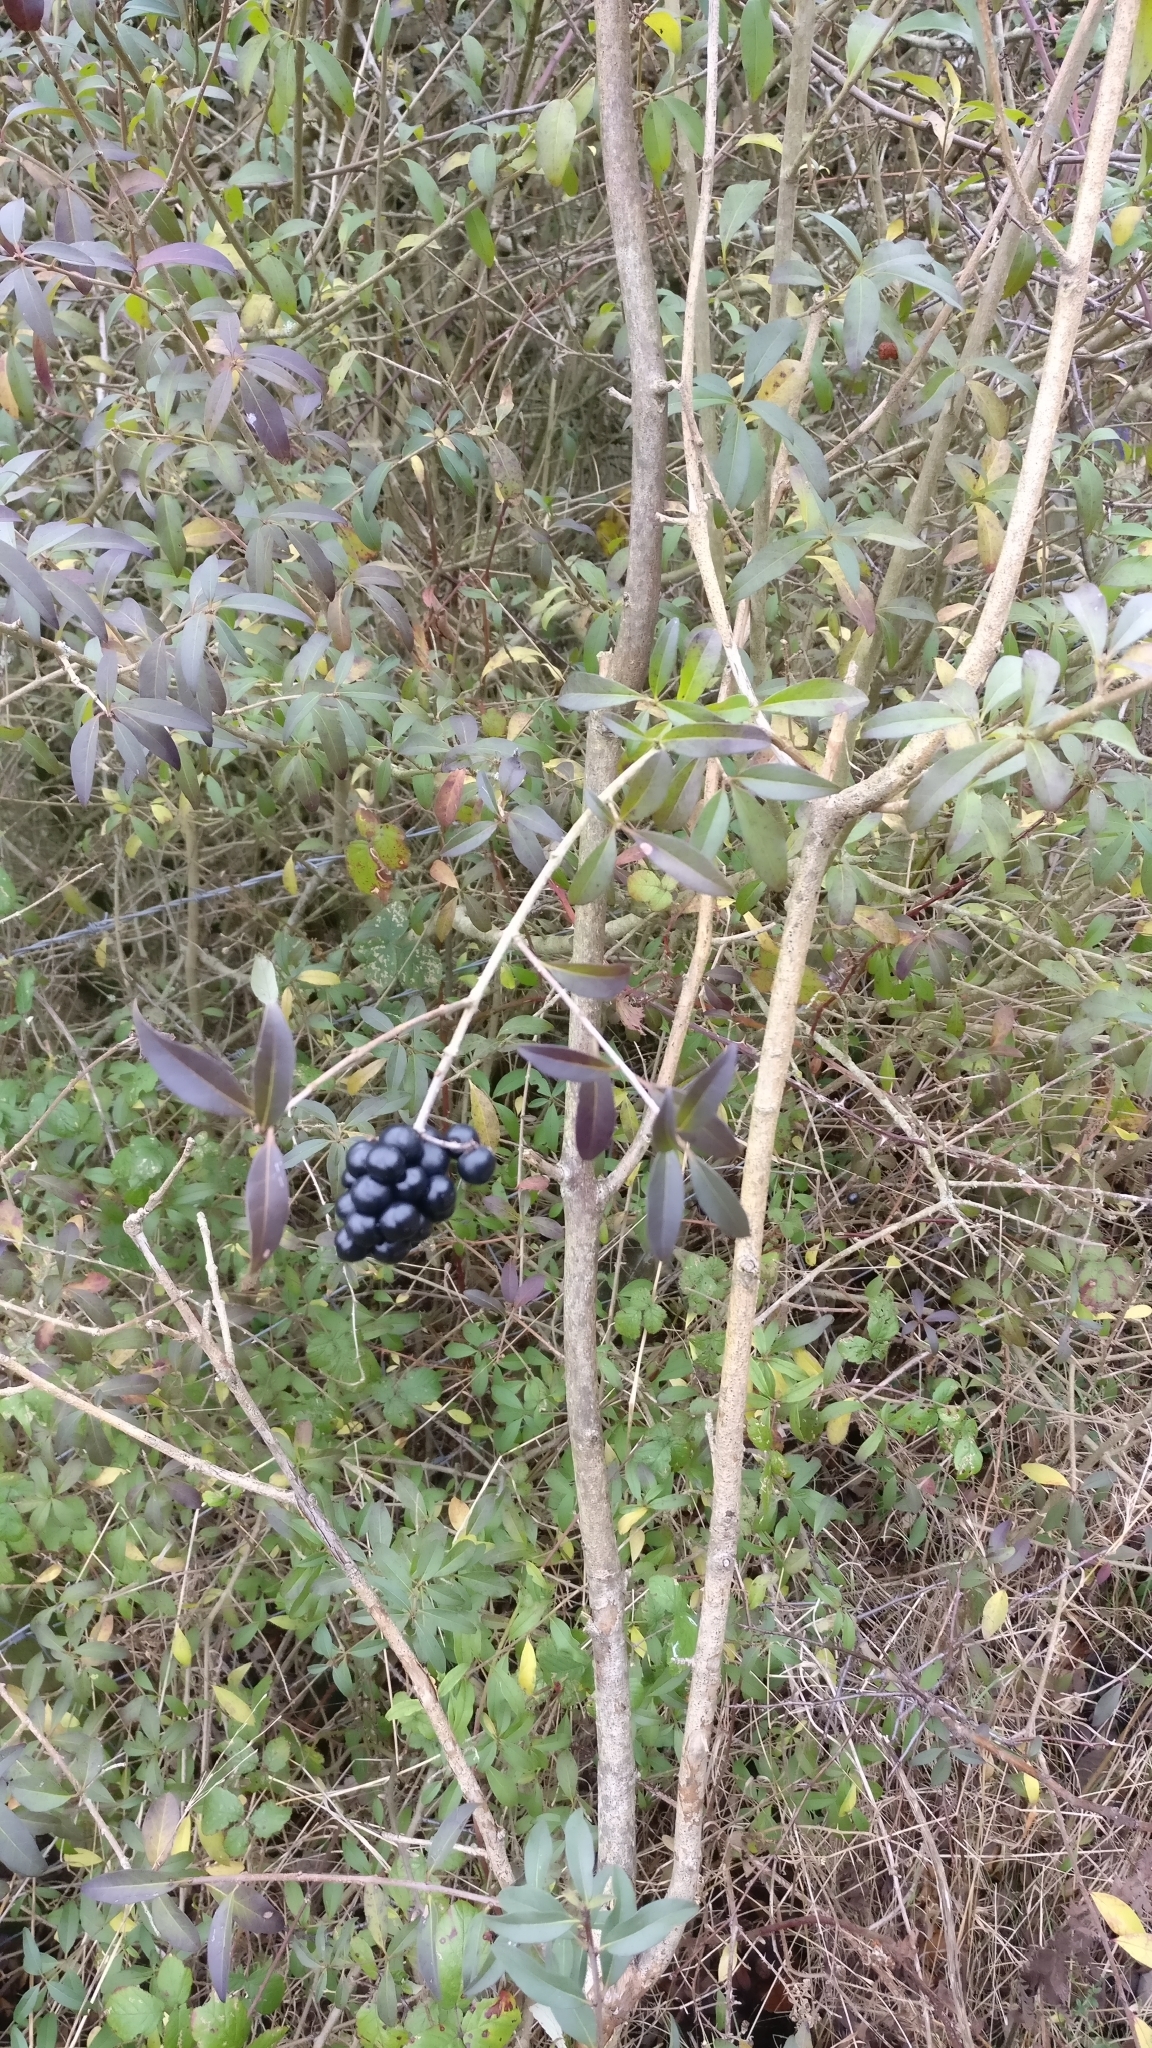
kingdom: Plantae
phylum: Tracheophyta
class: Magnoliopsida
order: Lamiales
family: Oleaceae
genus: Ligustrum
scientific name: Ligustrum vulgare
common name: Wild privet
